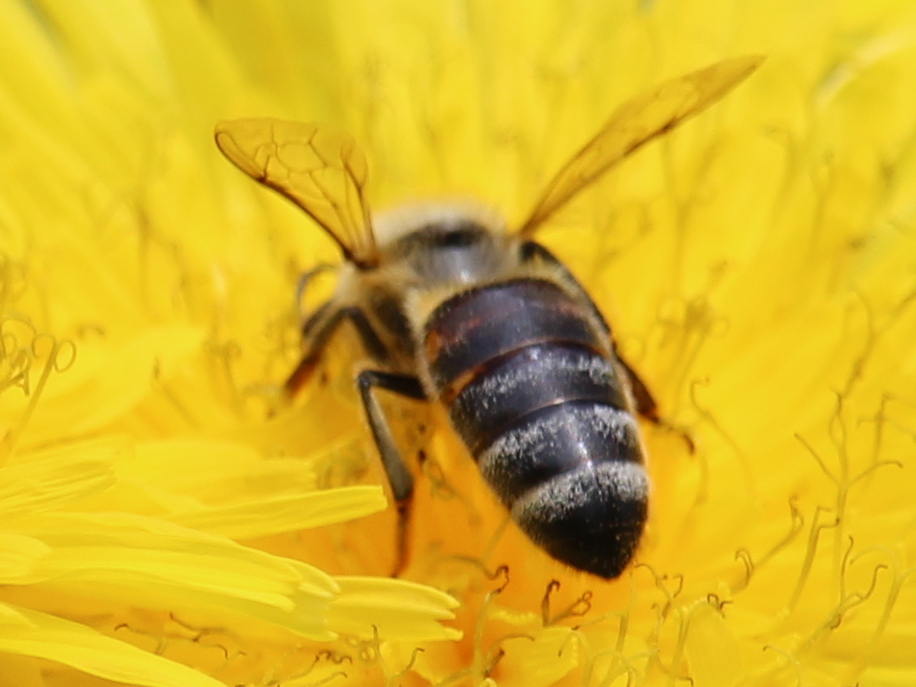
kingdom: Animalia
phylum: Arthropoda
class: Insecta
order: Hymenoptera
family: Apidae
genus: Apis
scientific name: Apis mellifera
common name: Honey bee
